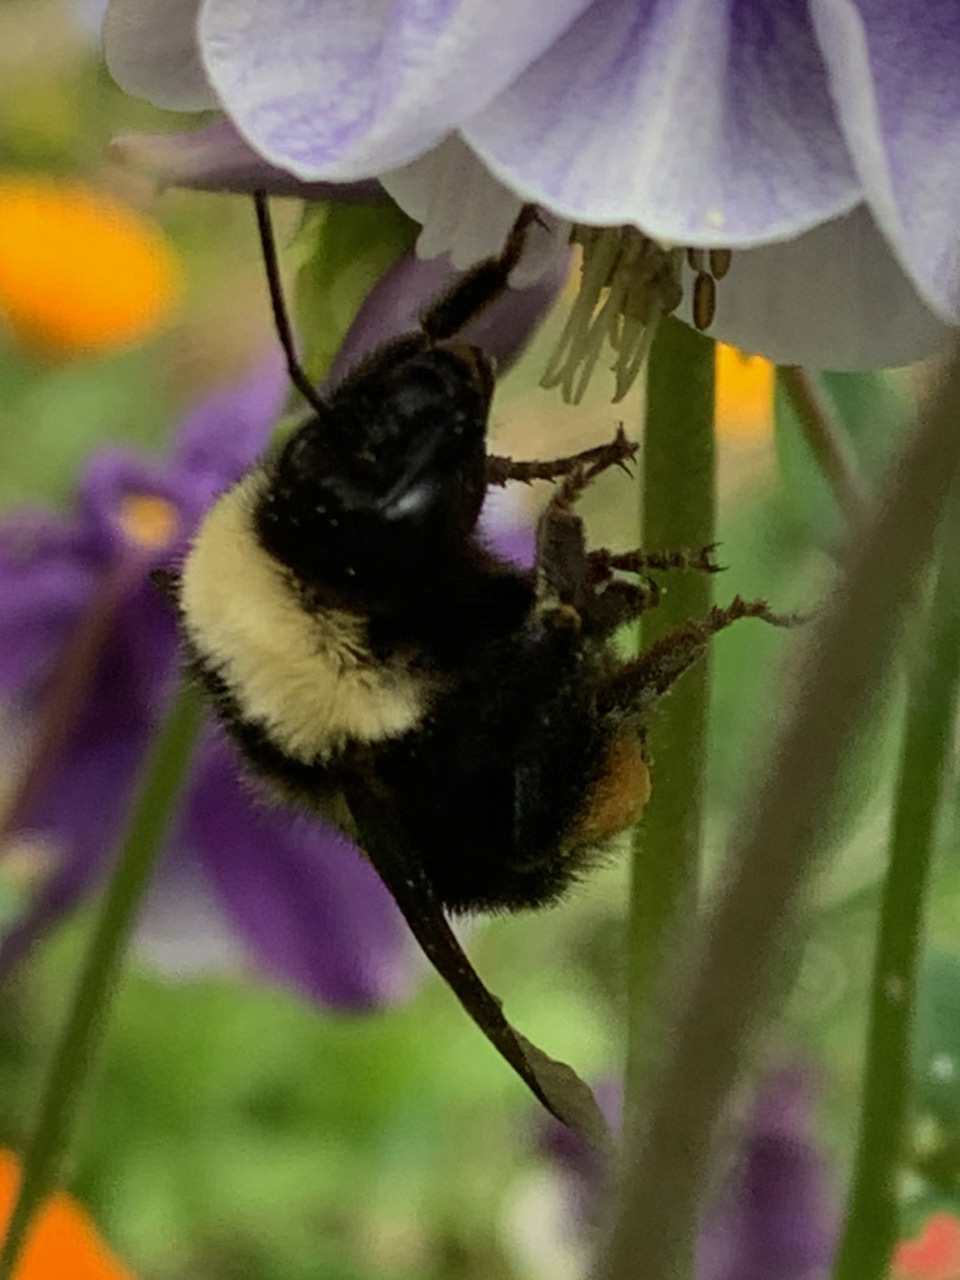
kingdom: Animalia
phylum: Arthropoda
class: Insecta
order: Hymenoptera
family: Apidae
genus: Bombus
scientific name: Bombus californicus
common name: California bumble bee
